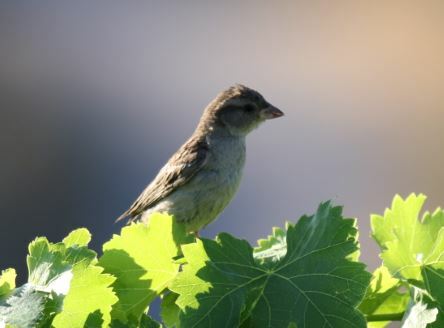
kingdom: Animalia
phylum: Chordata
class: Aves
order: Passeriformes
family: Passeridae
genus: Passer
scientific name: Passer domesticus
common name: House sparrow
